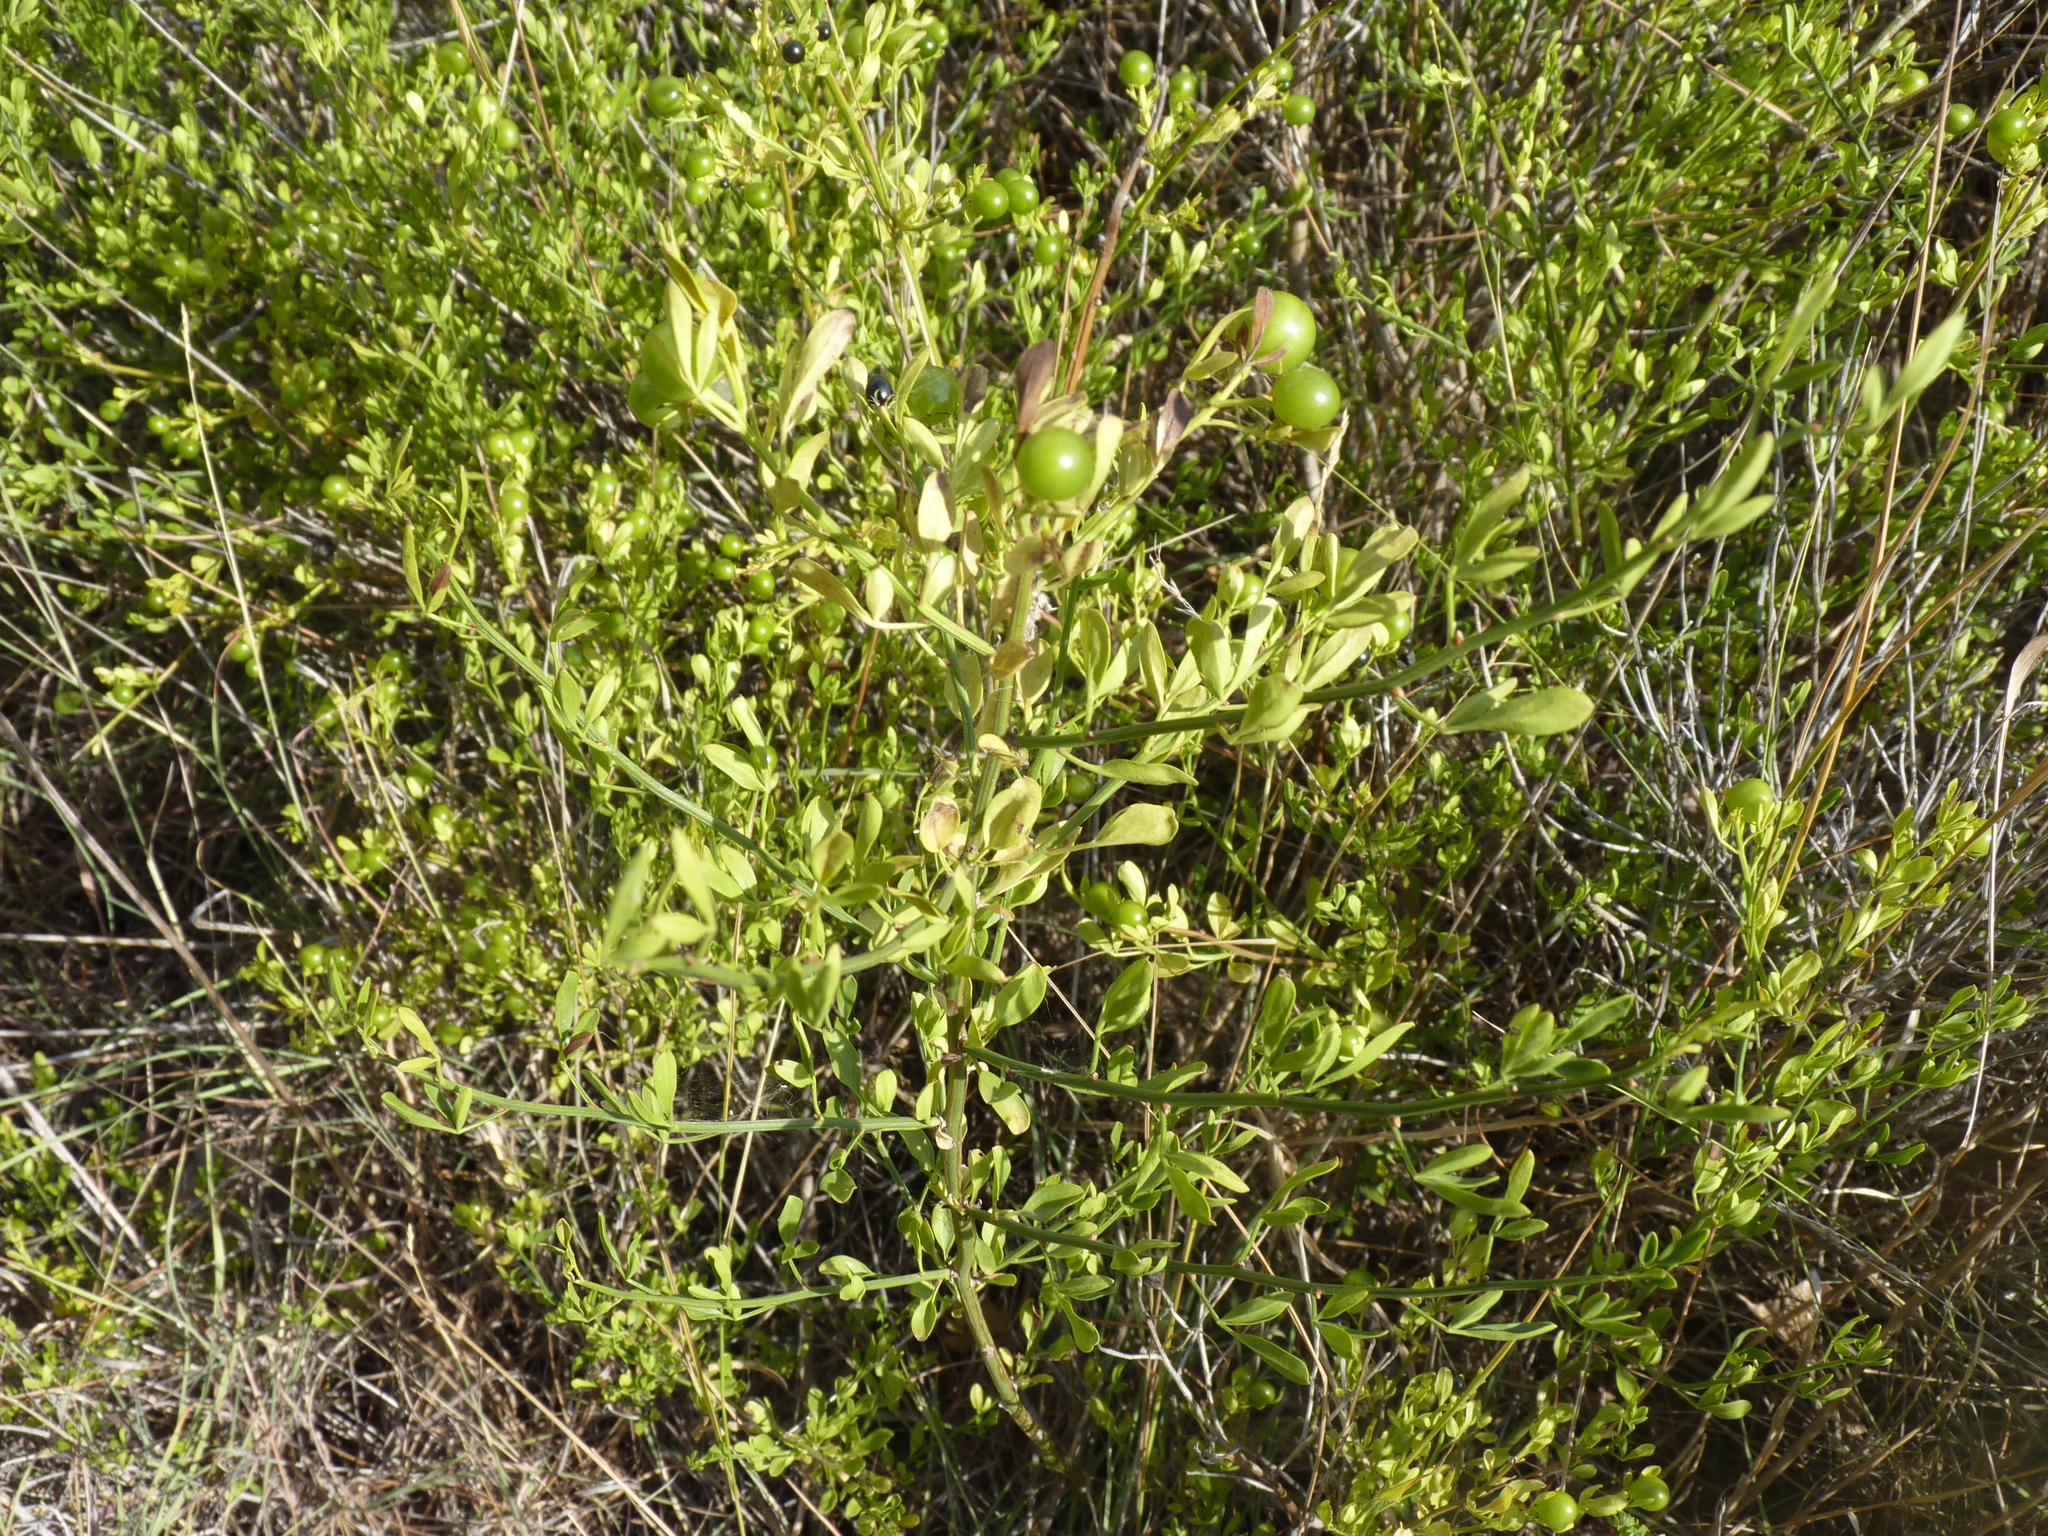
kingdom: Plantae
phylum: Tracheophyta
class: Magnoliopsida
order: Lamiales
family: Oleaceae
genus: Chrysojasminum
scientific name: Chrysojasminum fruticans
